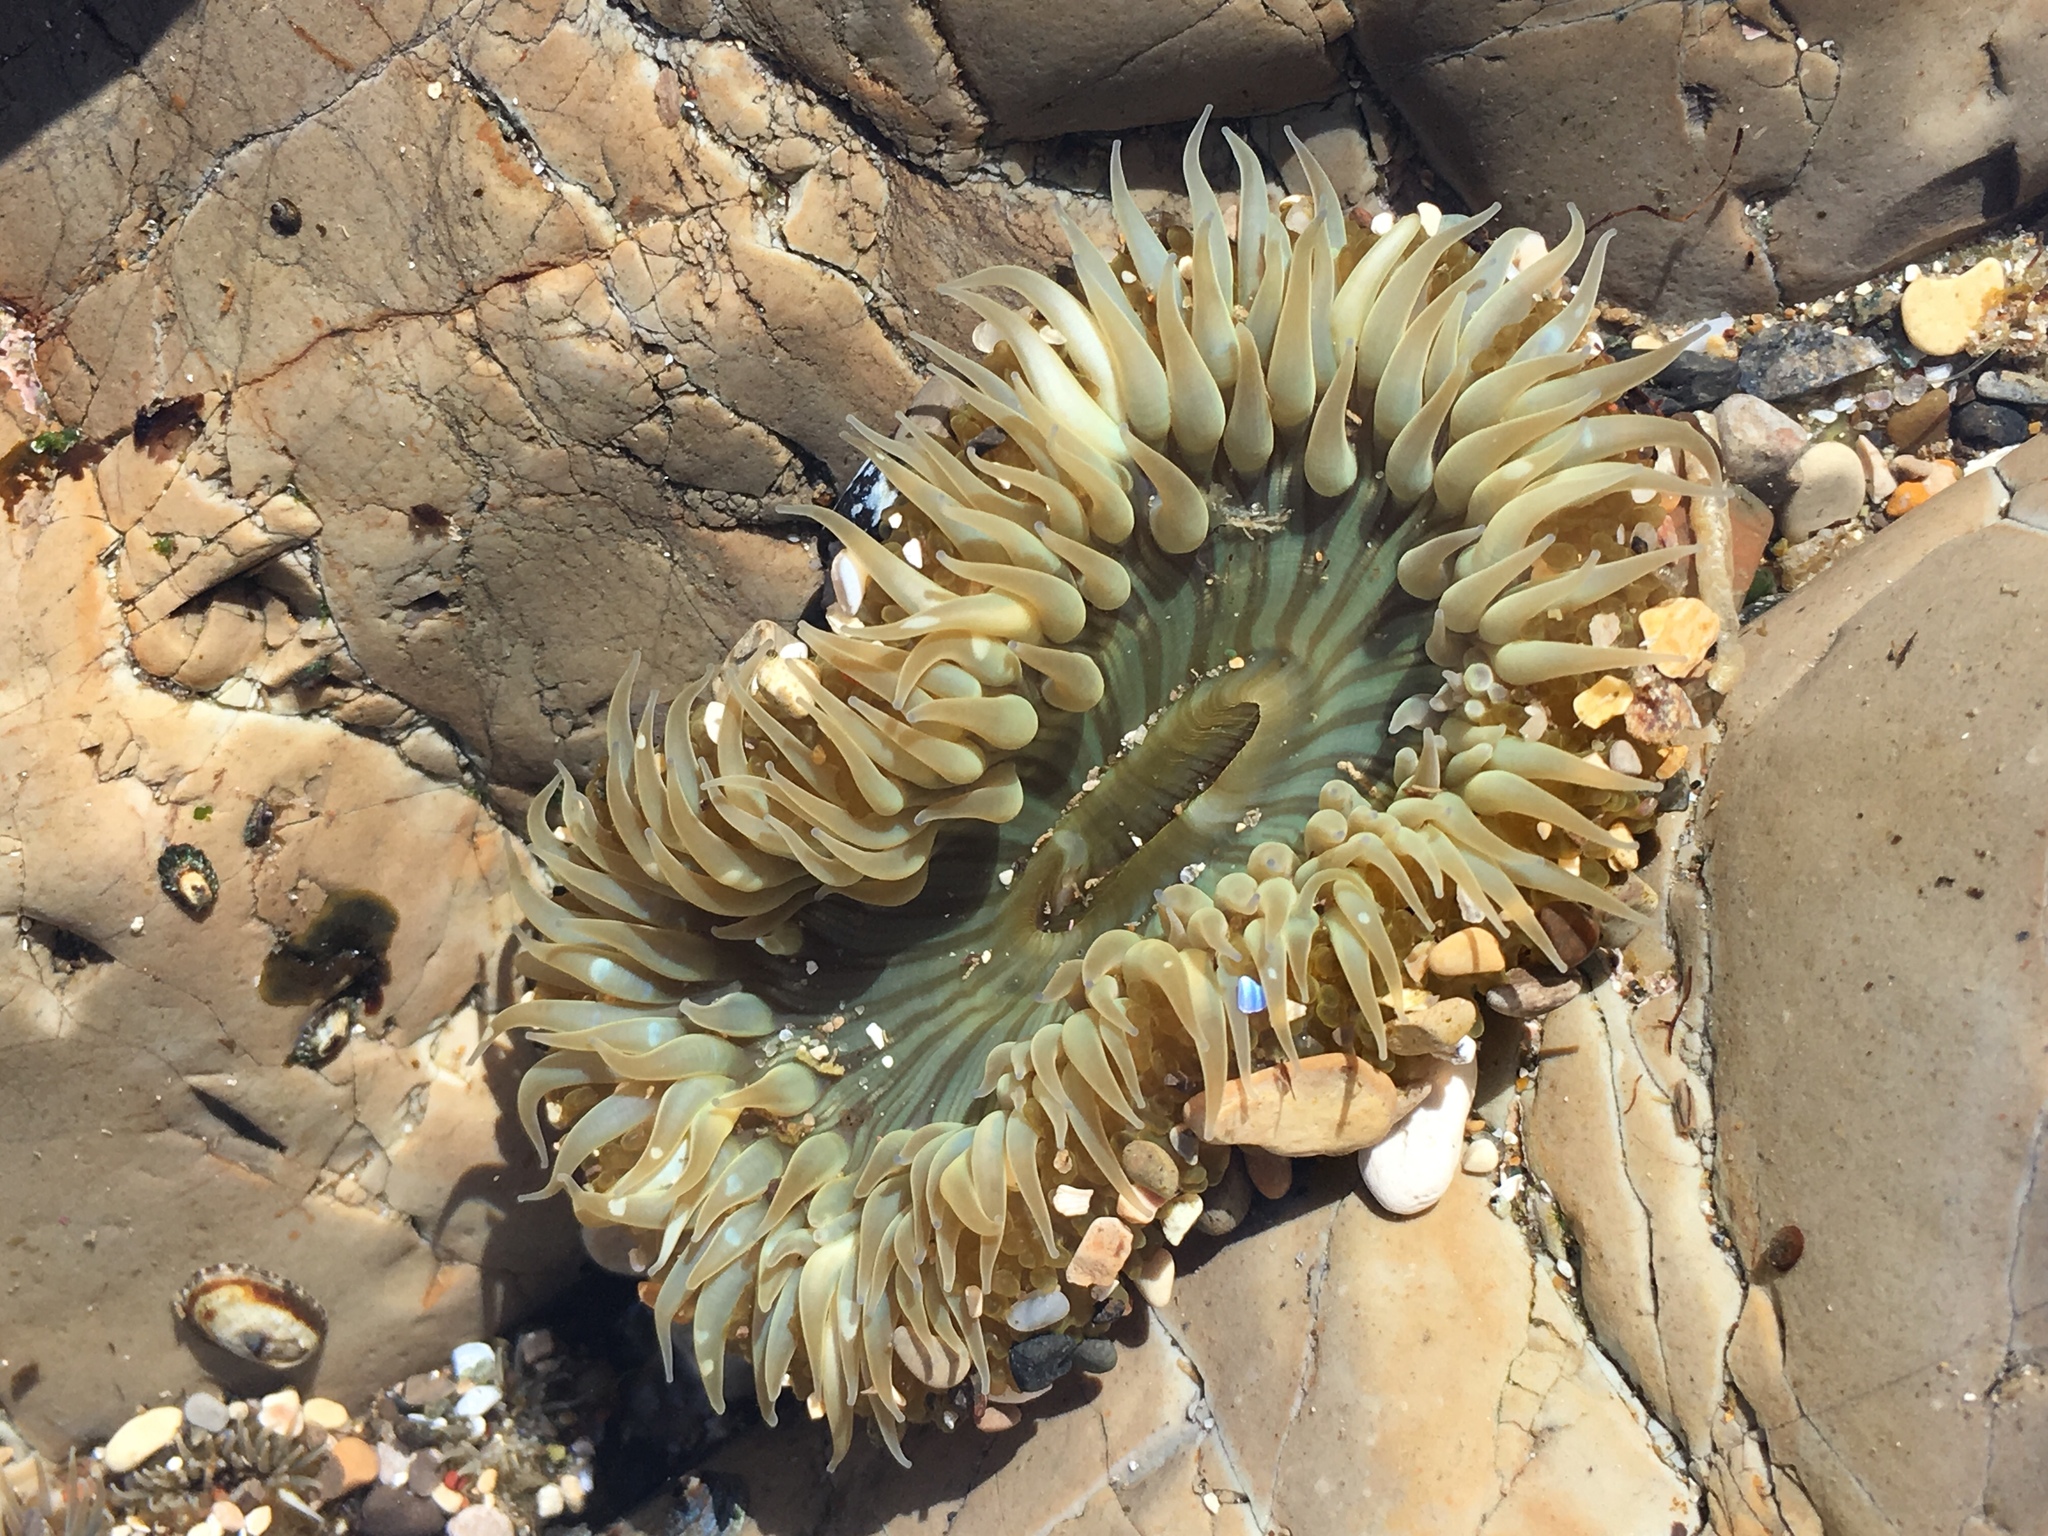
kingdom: Animalia
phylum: Cnidaria
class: Anthozoa
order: Actiniaria
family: Actiniidae
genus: Anthopleura
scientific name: Anthopleura sola
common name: Sun anemone
